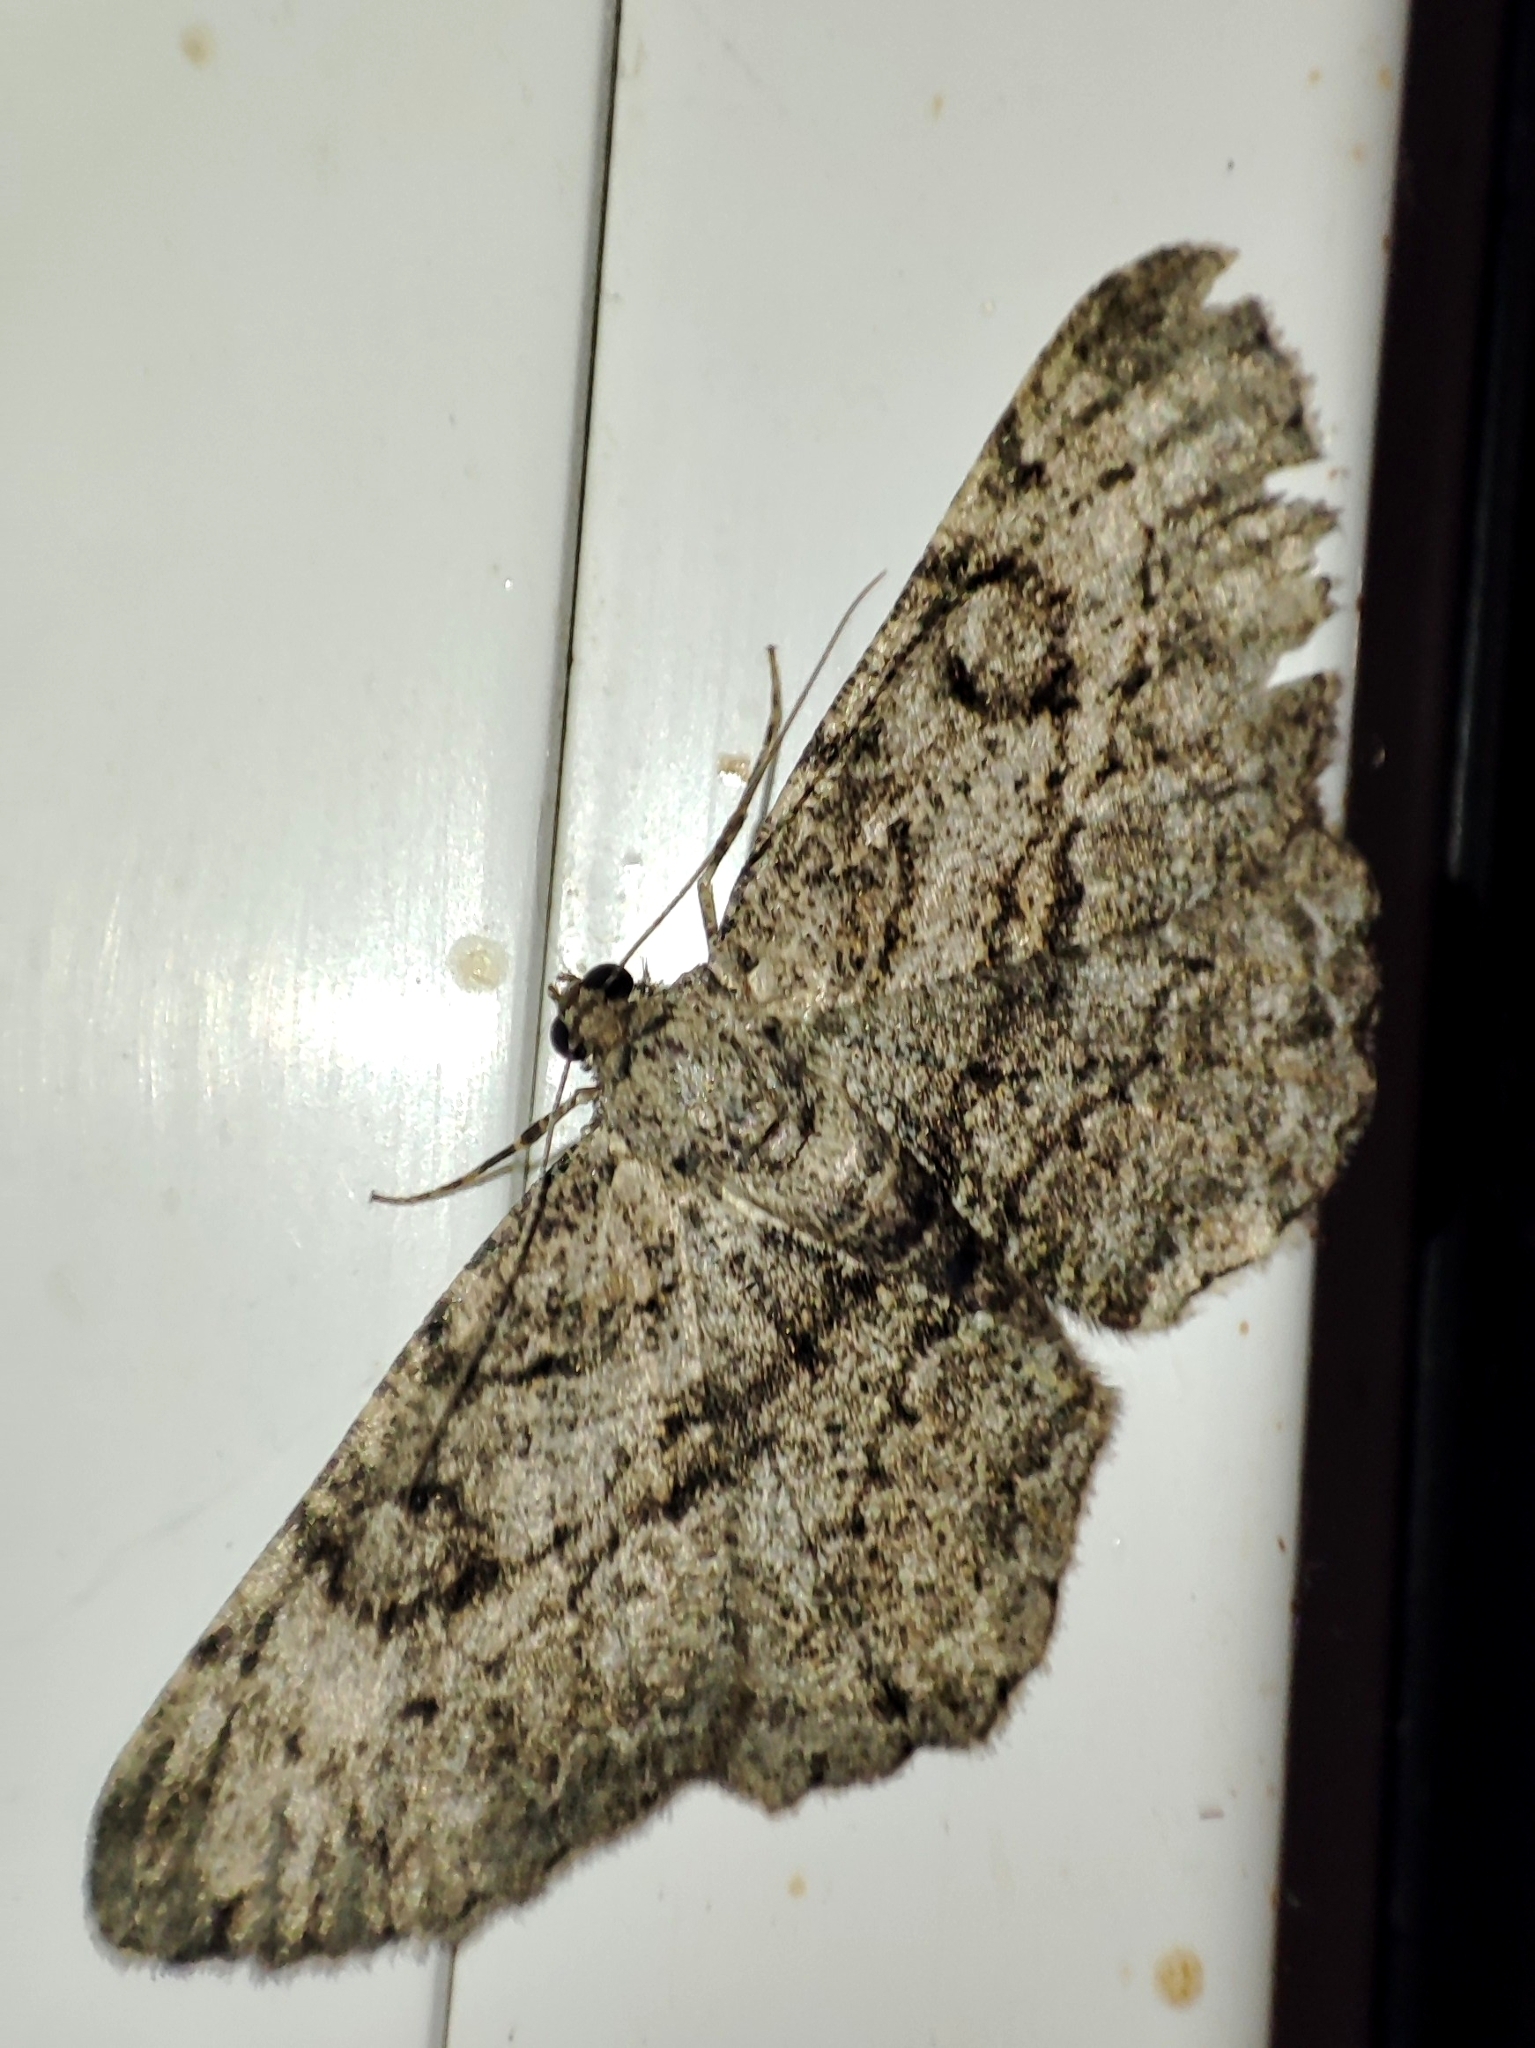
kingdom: Animalia
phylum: Arthropoda
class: Insecta
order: Lepidoptera
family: Geometridae
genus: Peribatodes
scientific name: Peribatodes rhomboidaria
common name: Willow beauty
